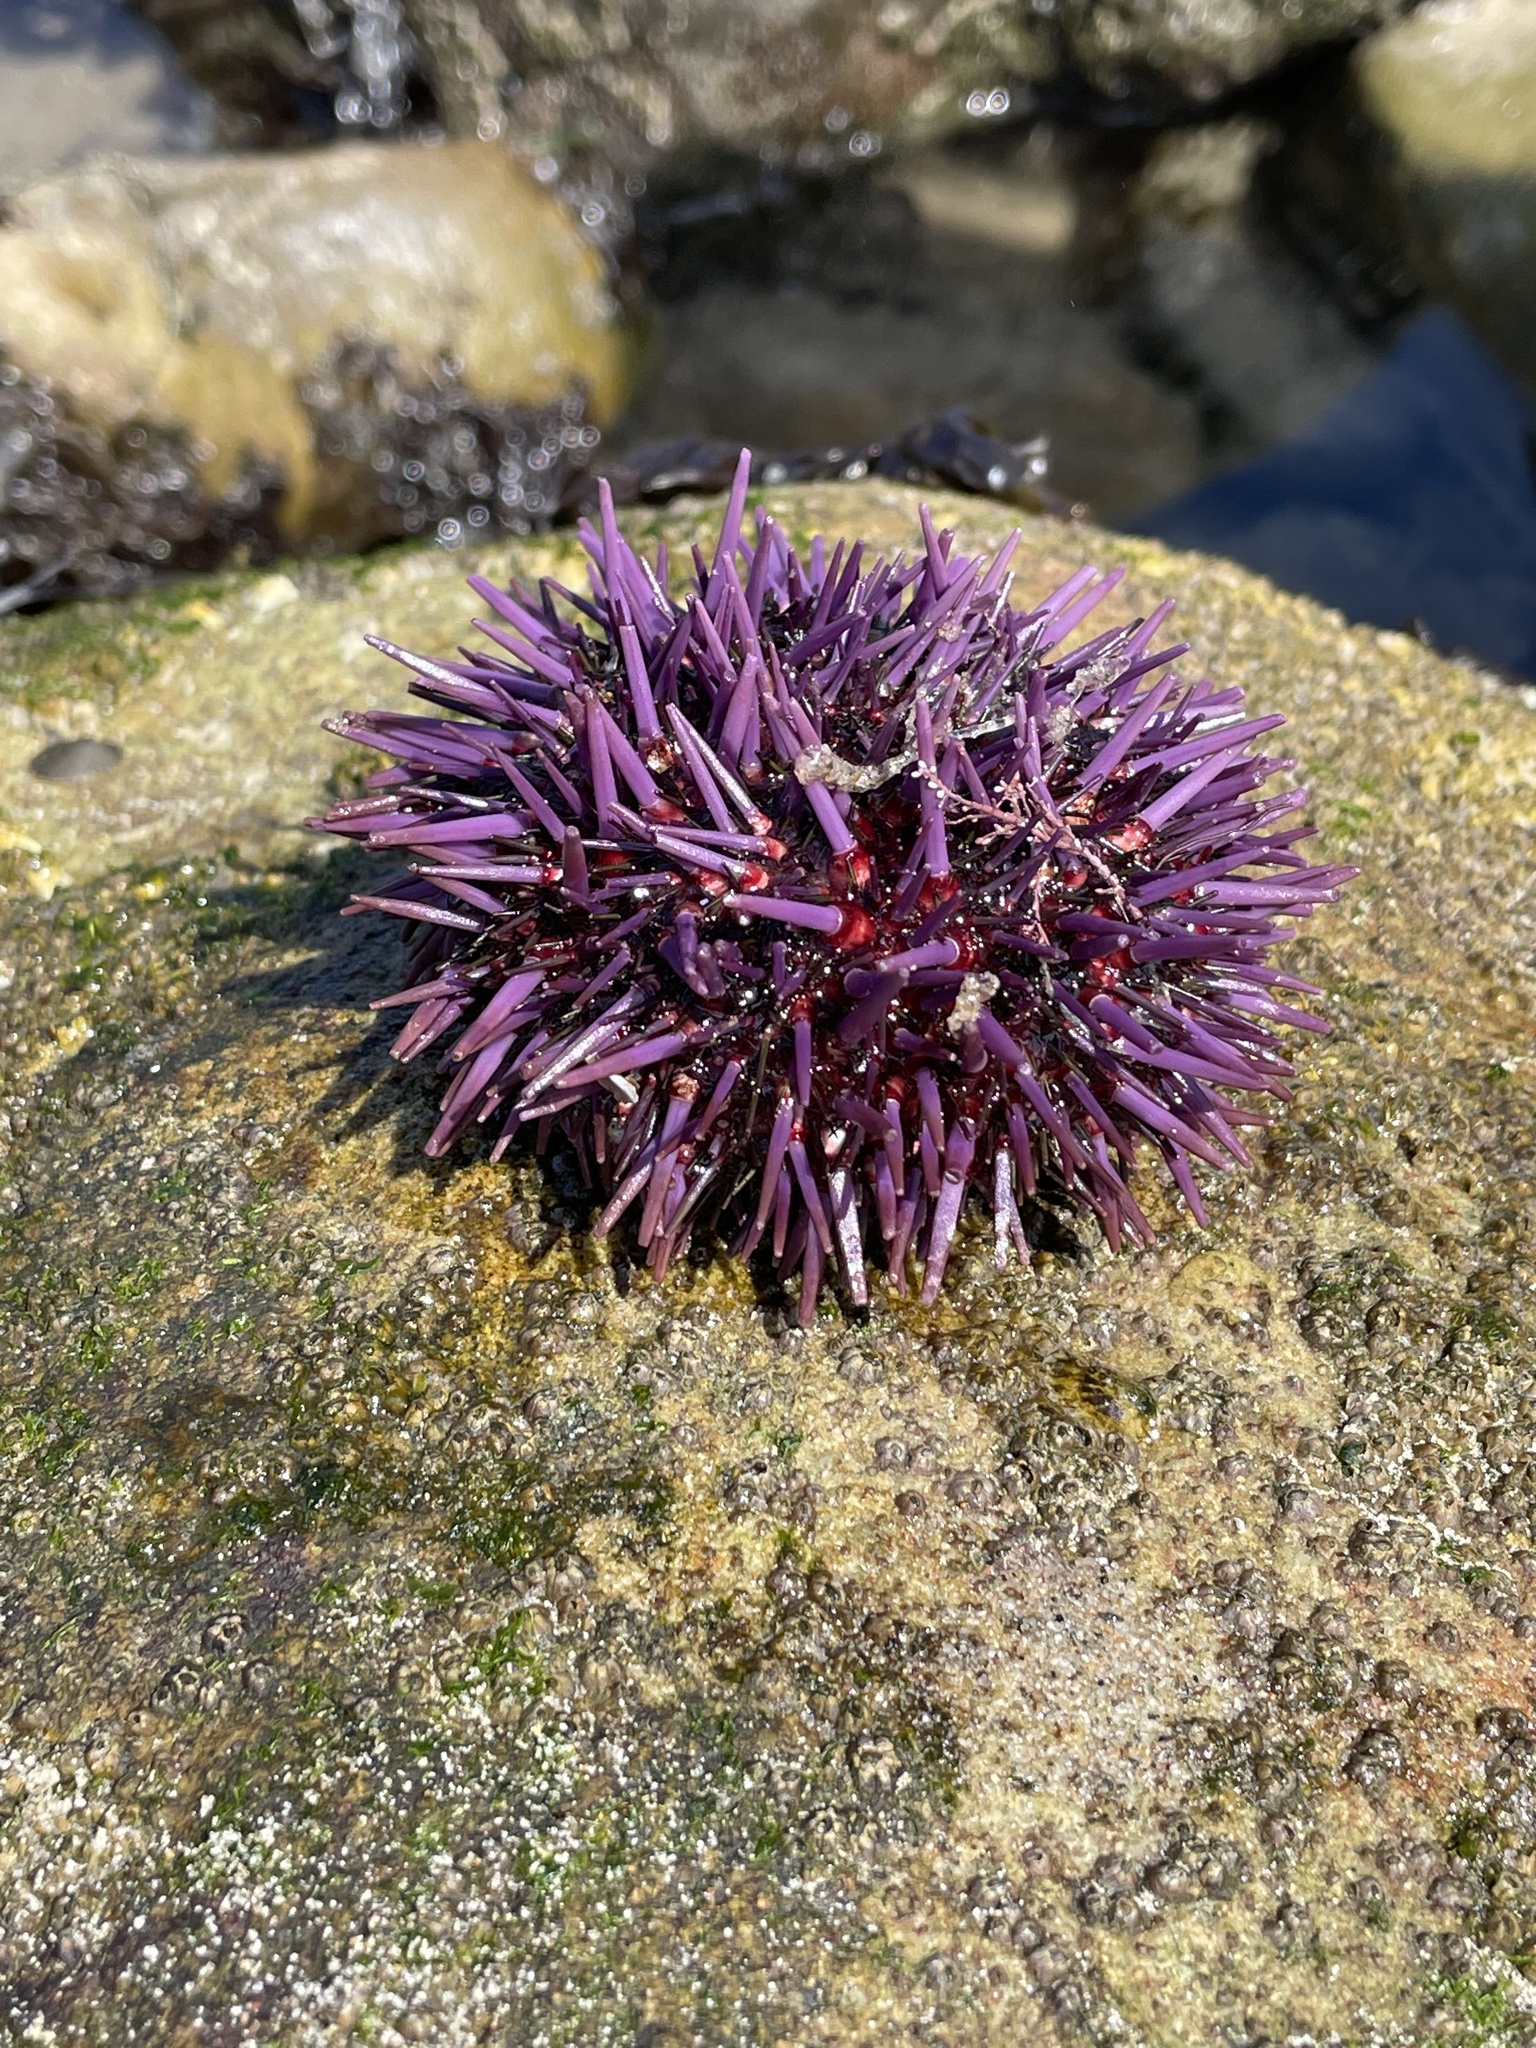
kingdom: Animalia
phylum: Echinodermata
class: Echinoidea
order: Camarodonta
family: Strongylocentrotidae
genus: Strongylocentrotus
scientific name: Strongylocentrotus purpuratus
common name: Purple sea urchin
